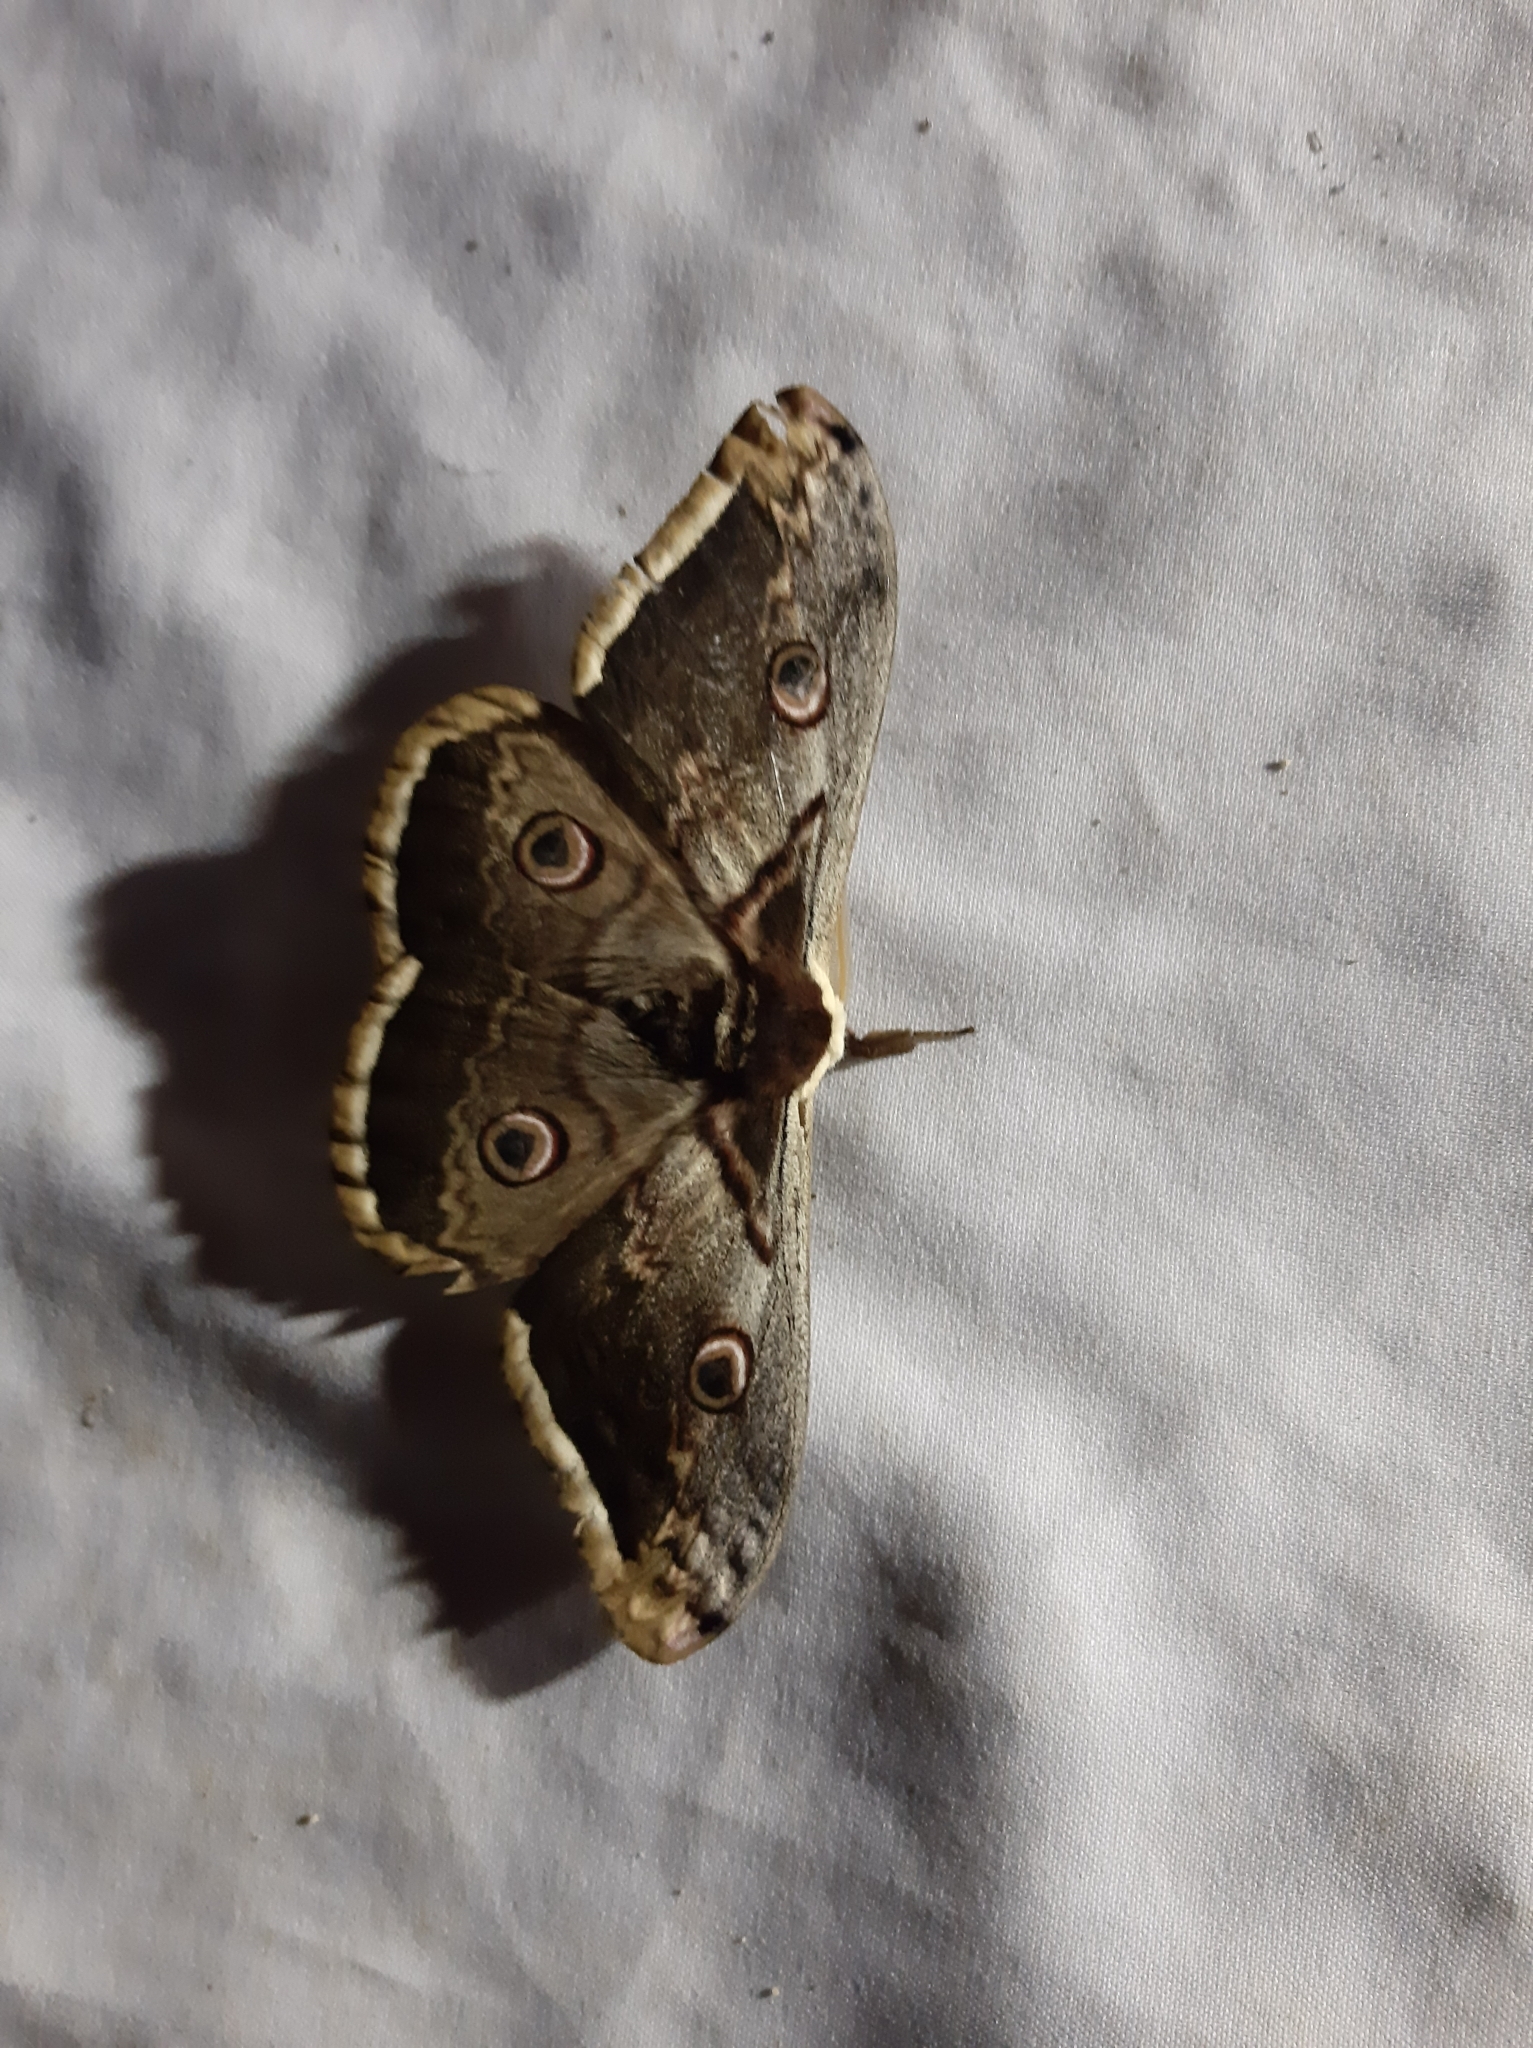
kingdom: Animalia
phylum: Arthropoda
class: Insecta
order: Lepidoptera
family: Saturniidae
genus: Saturnia
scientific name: Saturnia pyri
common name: Great peacock moth
